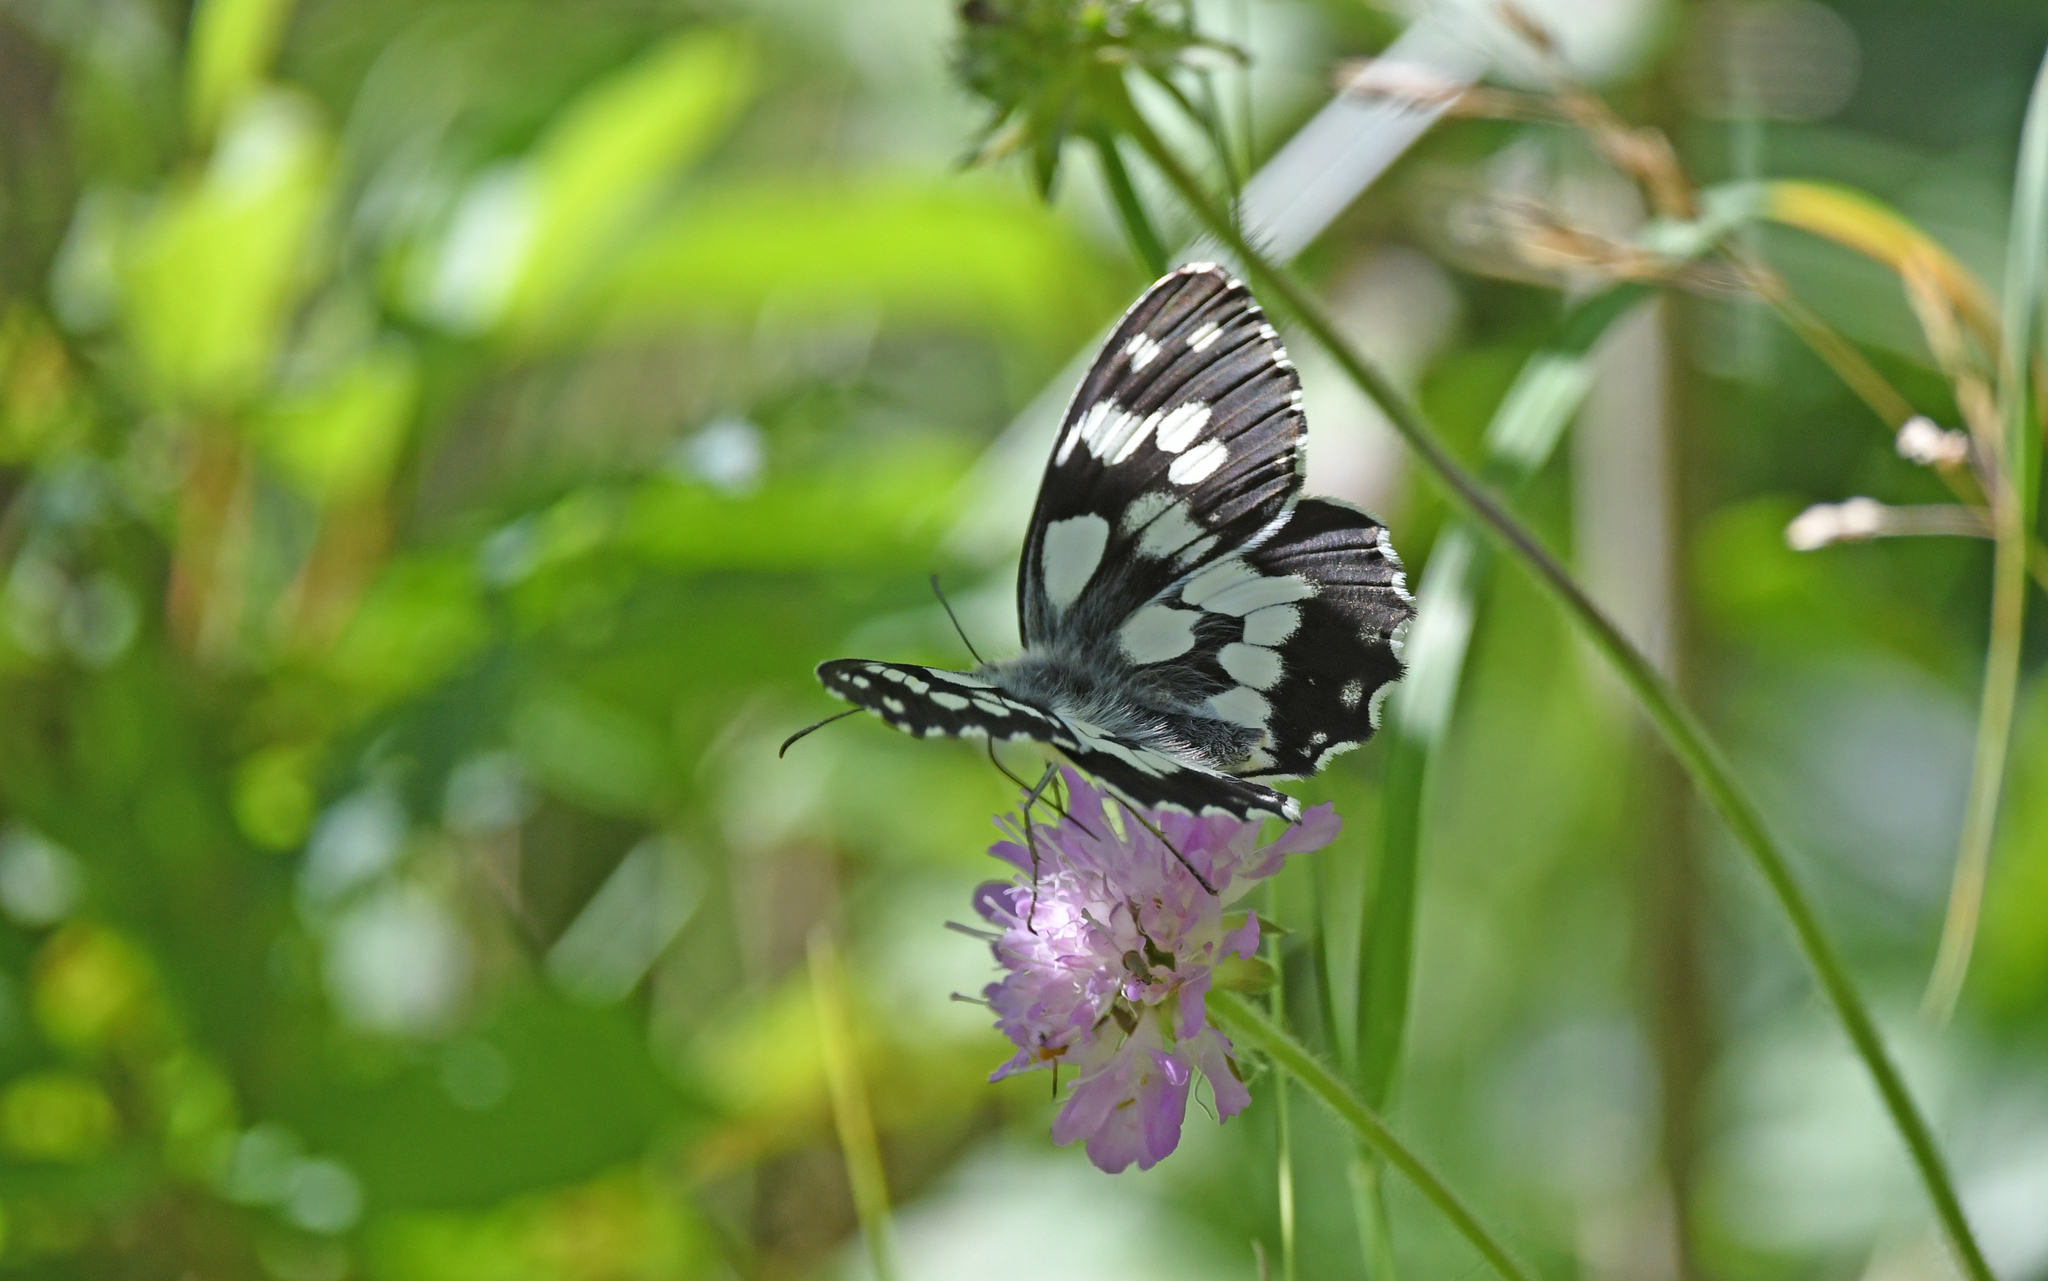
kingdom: Animalia
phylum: Arthropoda
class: Insecta
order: Lepidoptera
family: Nymphalidae
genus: Melanargia
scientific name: Melanargia galathea
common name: Marbled white
